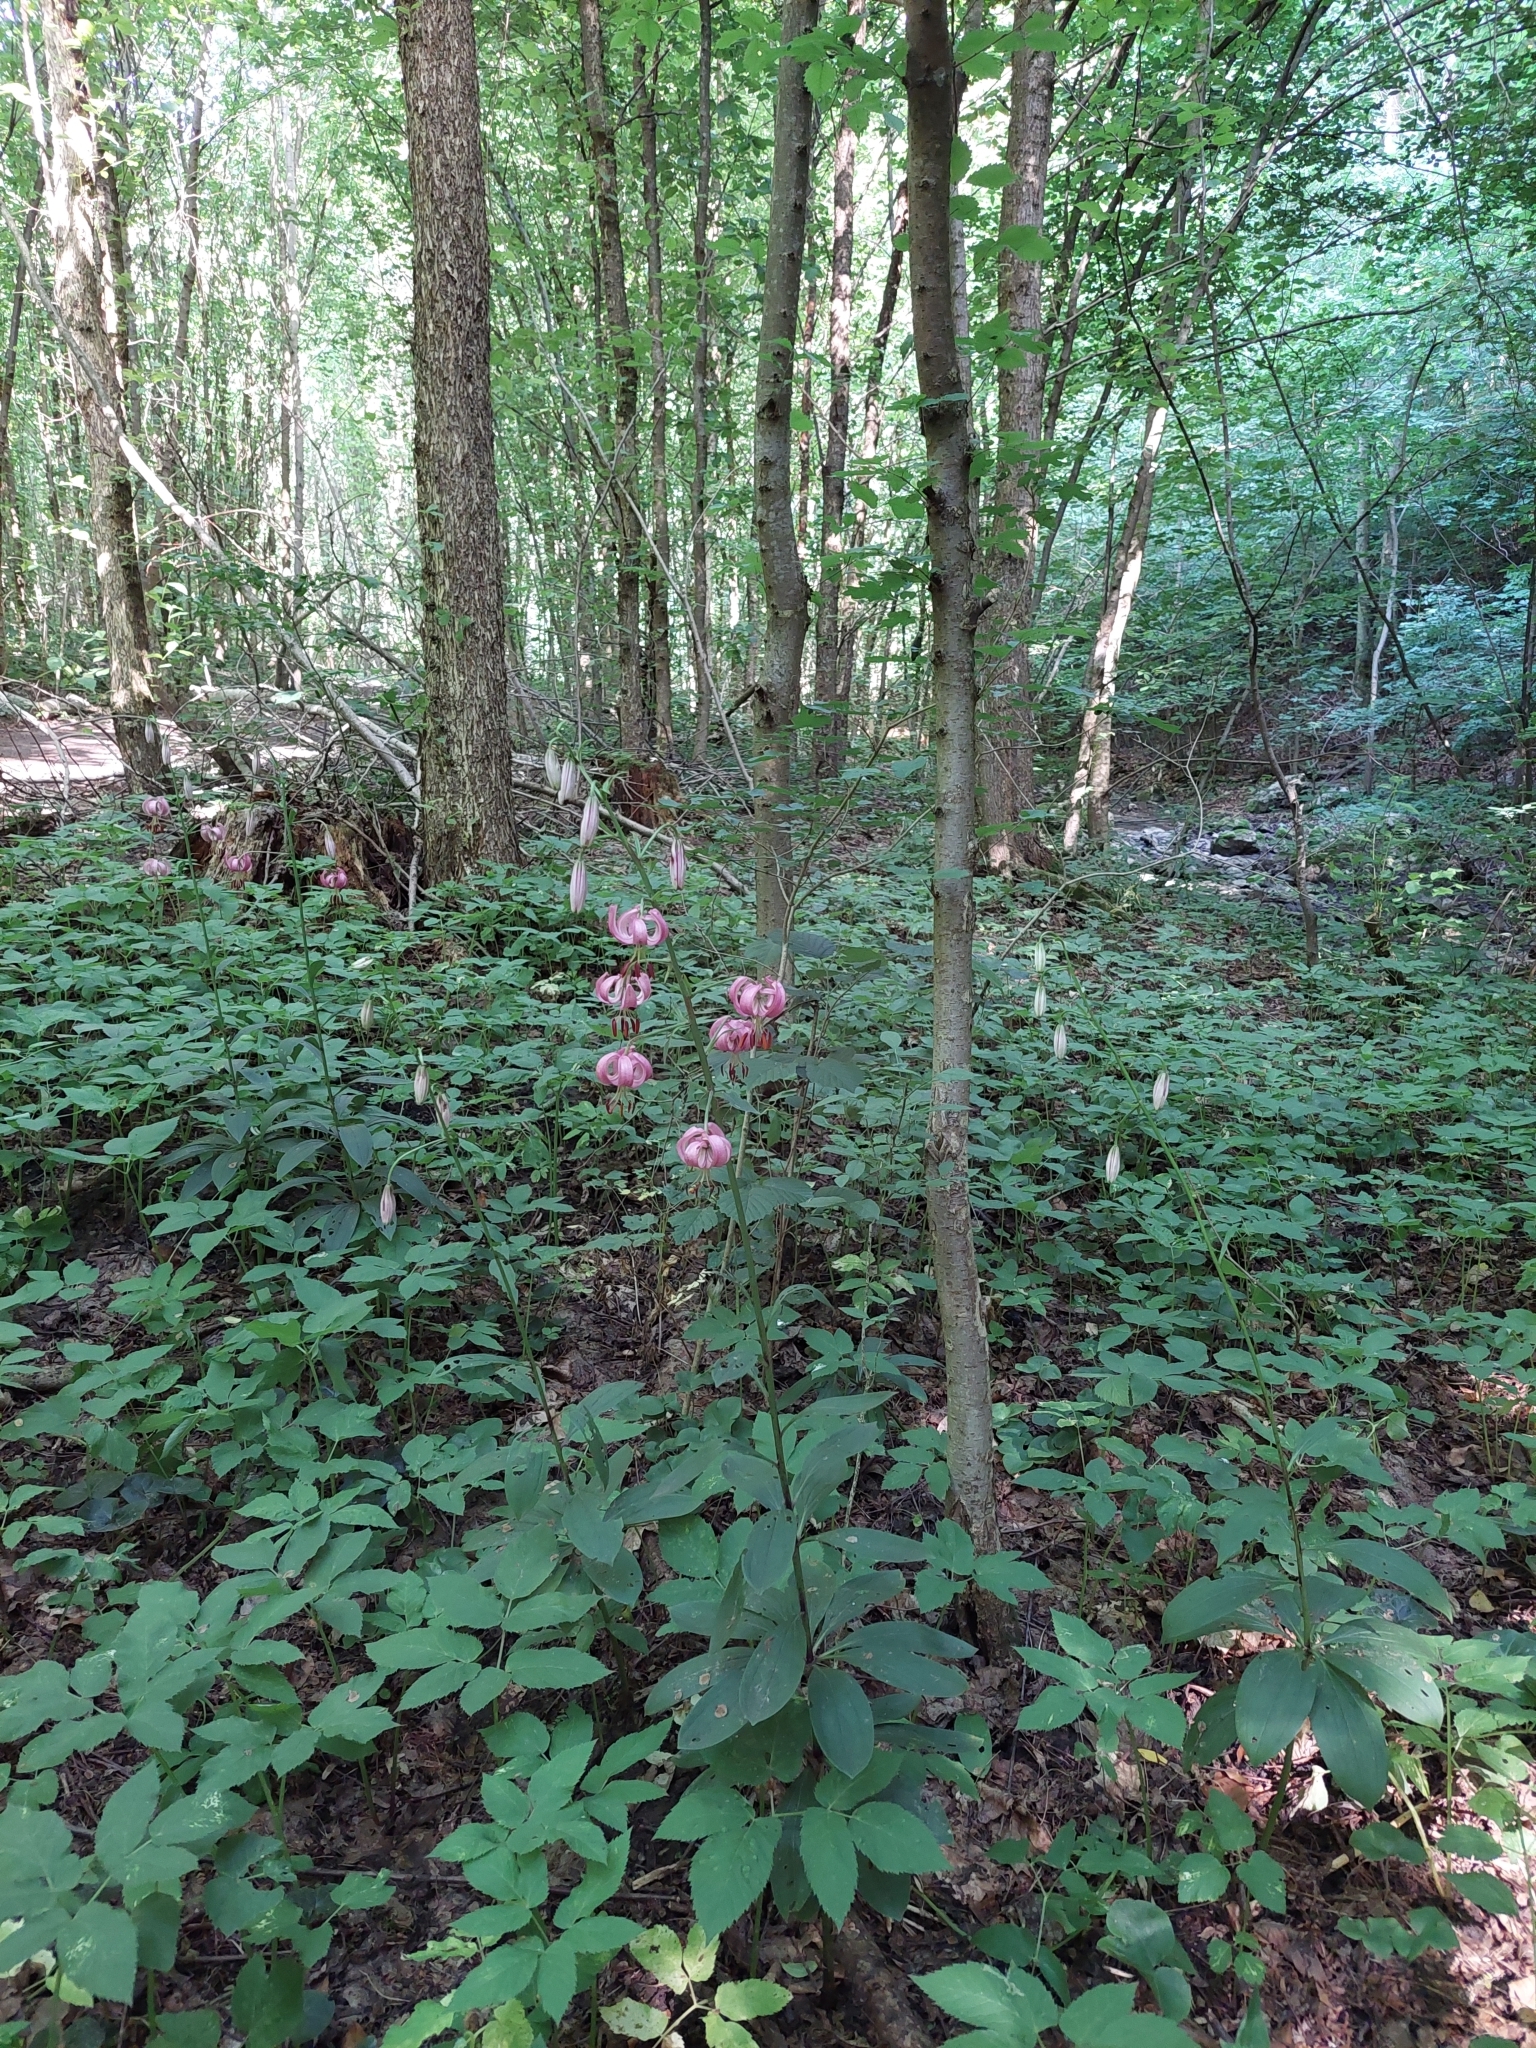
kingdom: Plantae
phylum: Tracheophyta
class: Liliopsida
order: Liliales
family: Liliaceae
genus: Lilium
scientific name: Lilium martagon
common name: Martagon lily
